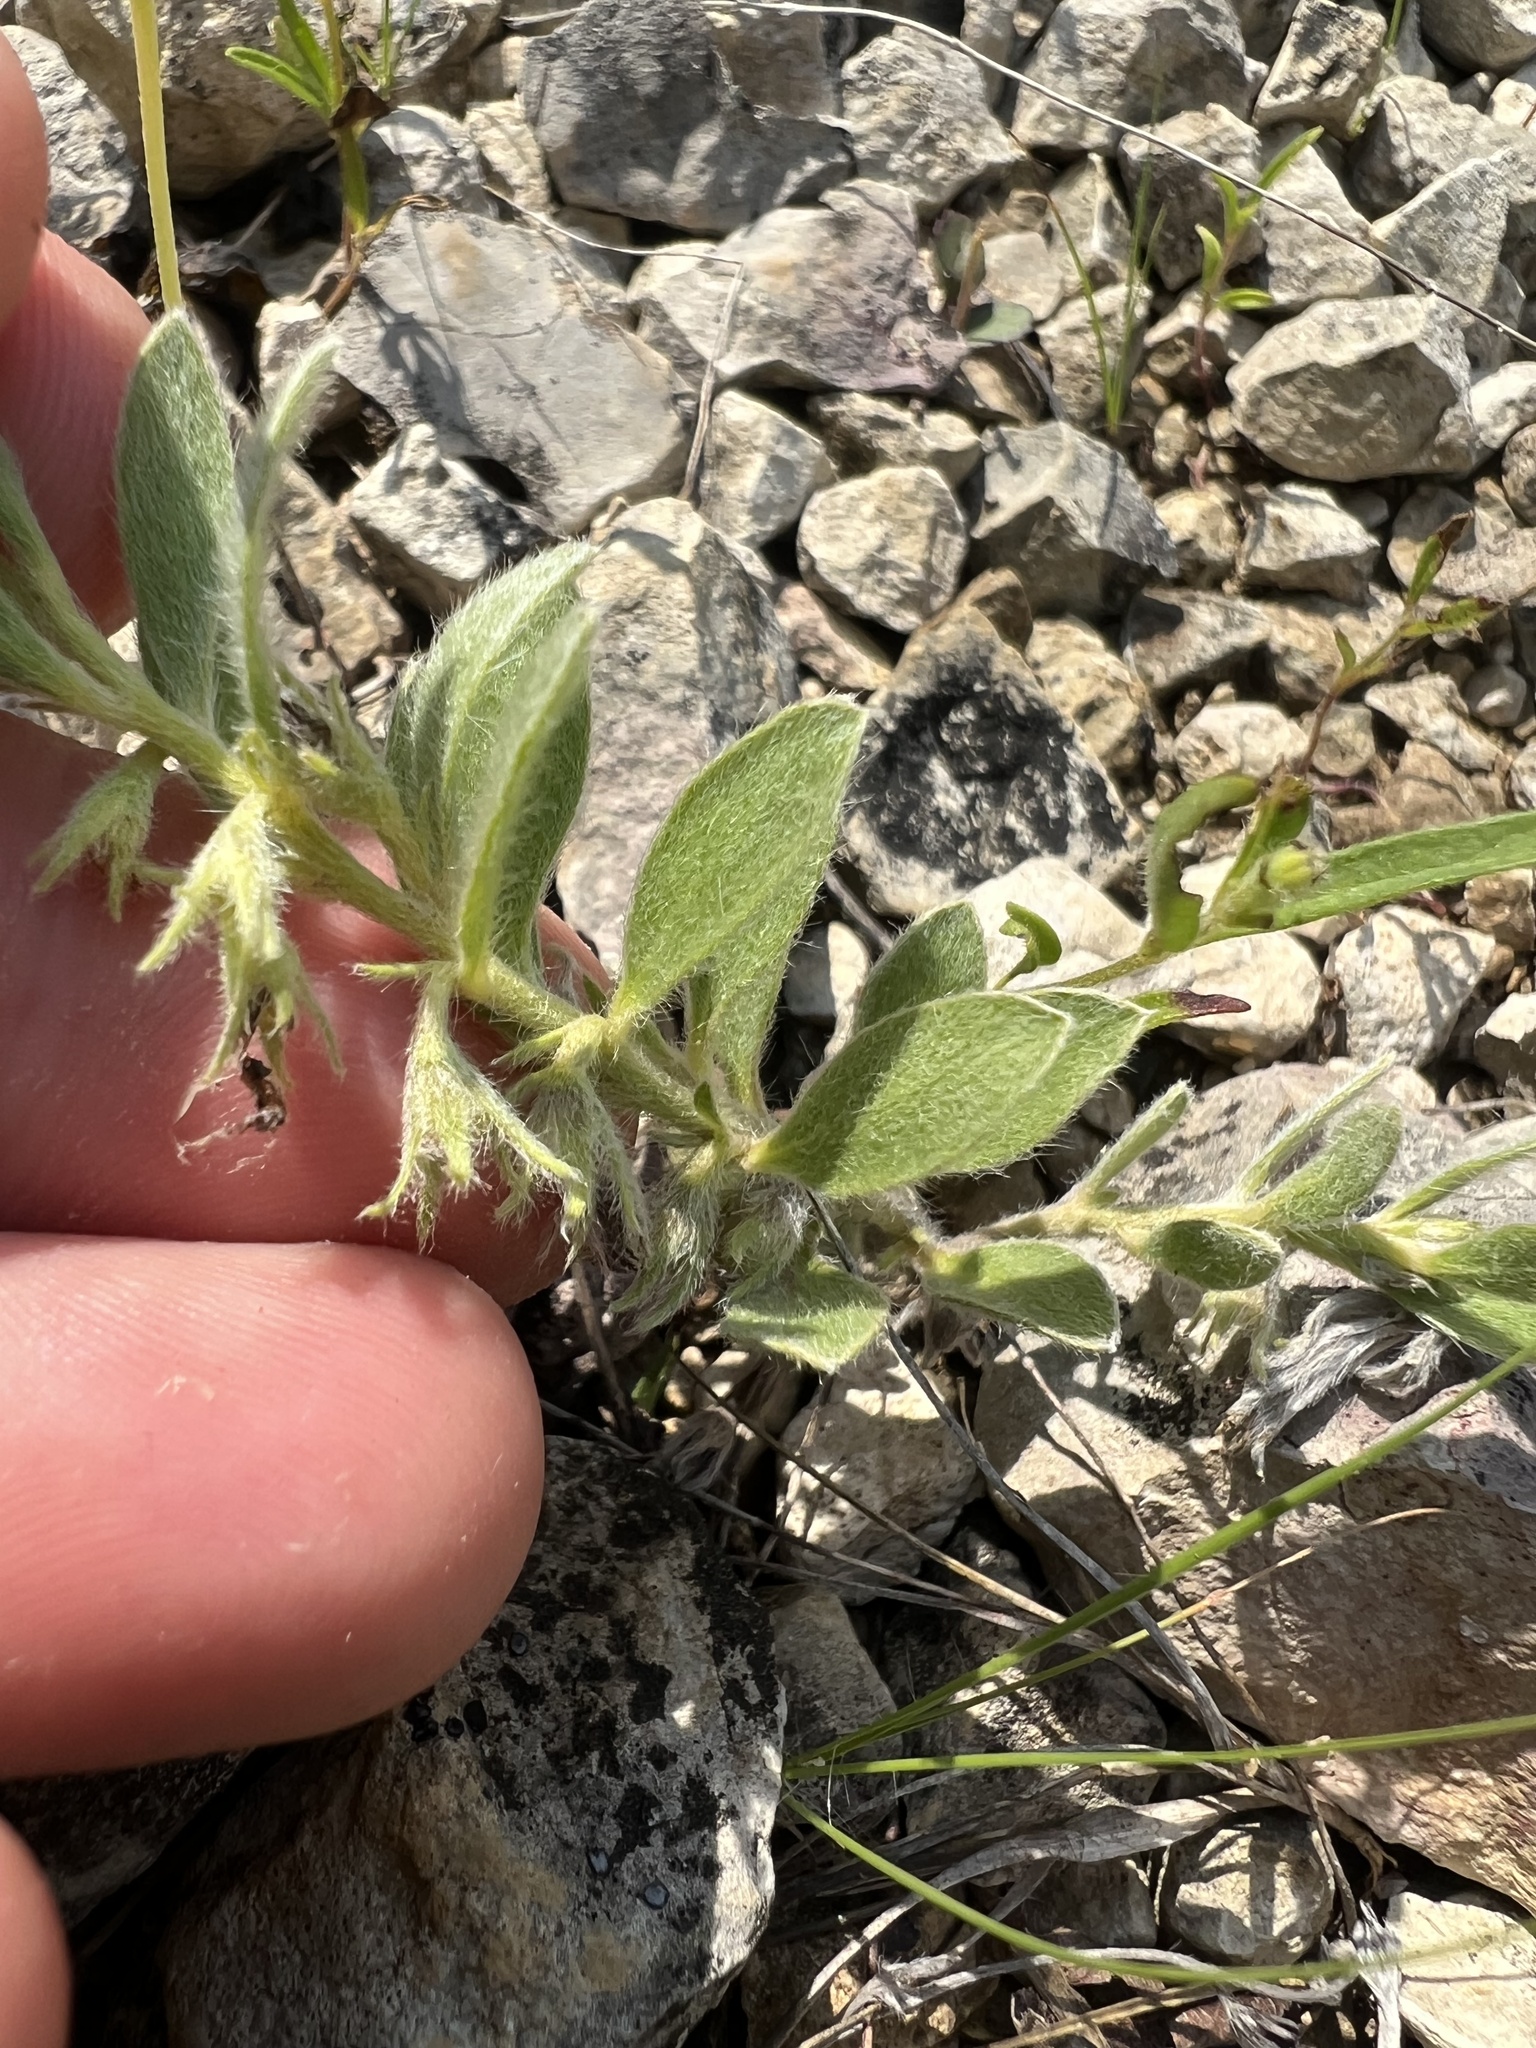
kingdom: Plantae
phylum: Tracheophyta
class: Magnoliopsida
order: Solanales
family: Convolvulaceae
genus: Evolvulus
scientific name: Evolvulus nuttallianus
